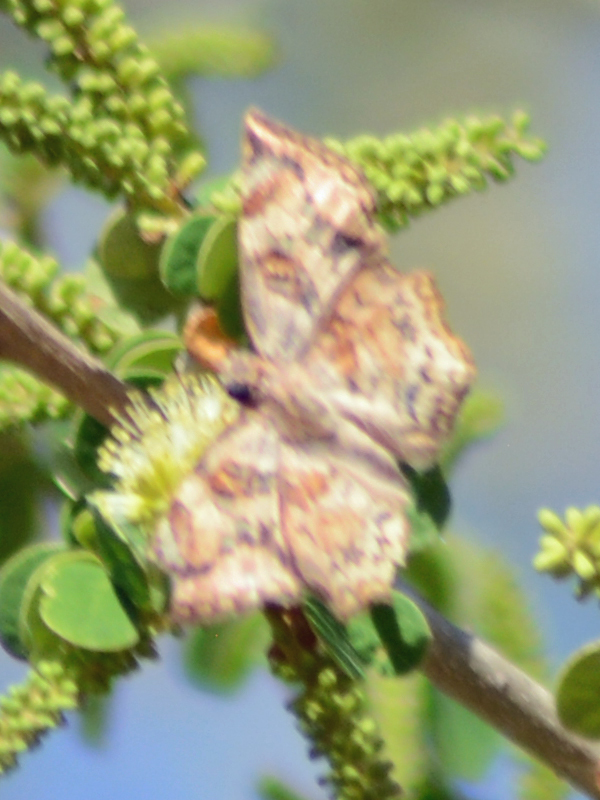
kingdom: Animalia
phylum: Arthropoda
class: Insecta
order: Lepidoptera
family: Hesperiidae
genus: Antigonus
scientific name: Antigonus erosus
